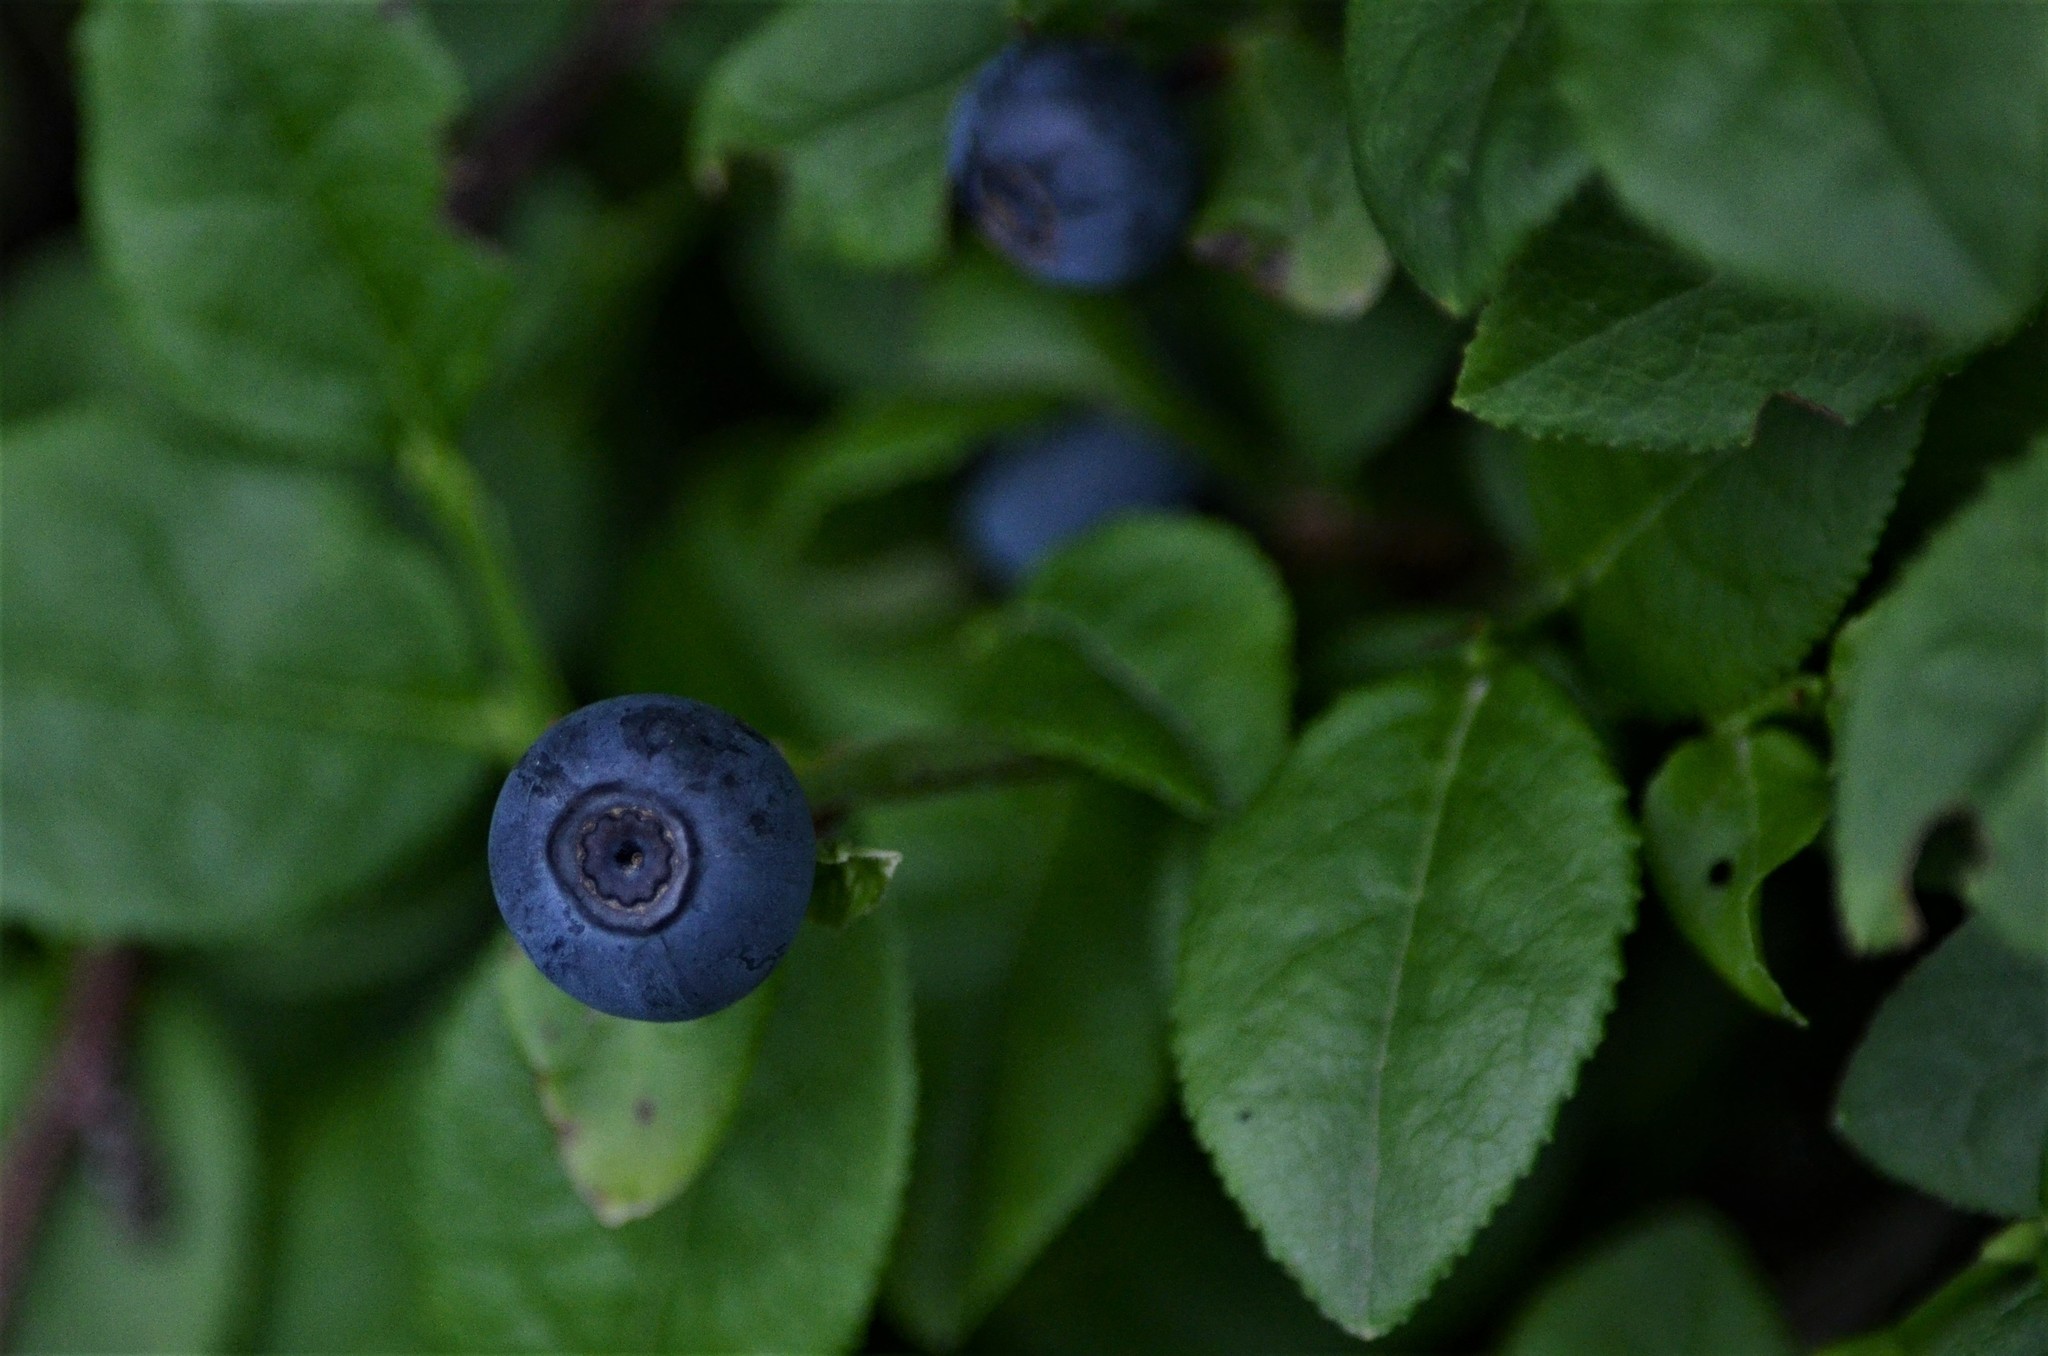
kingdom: Plantae
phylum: Tracheophyta
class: Magnoliopsida
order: Ericales
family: Ericaceae
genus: Vaccinium
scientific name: Vaccinium myrtillus
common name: Bilberry
